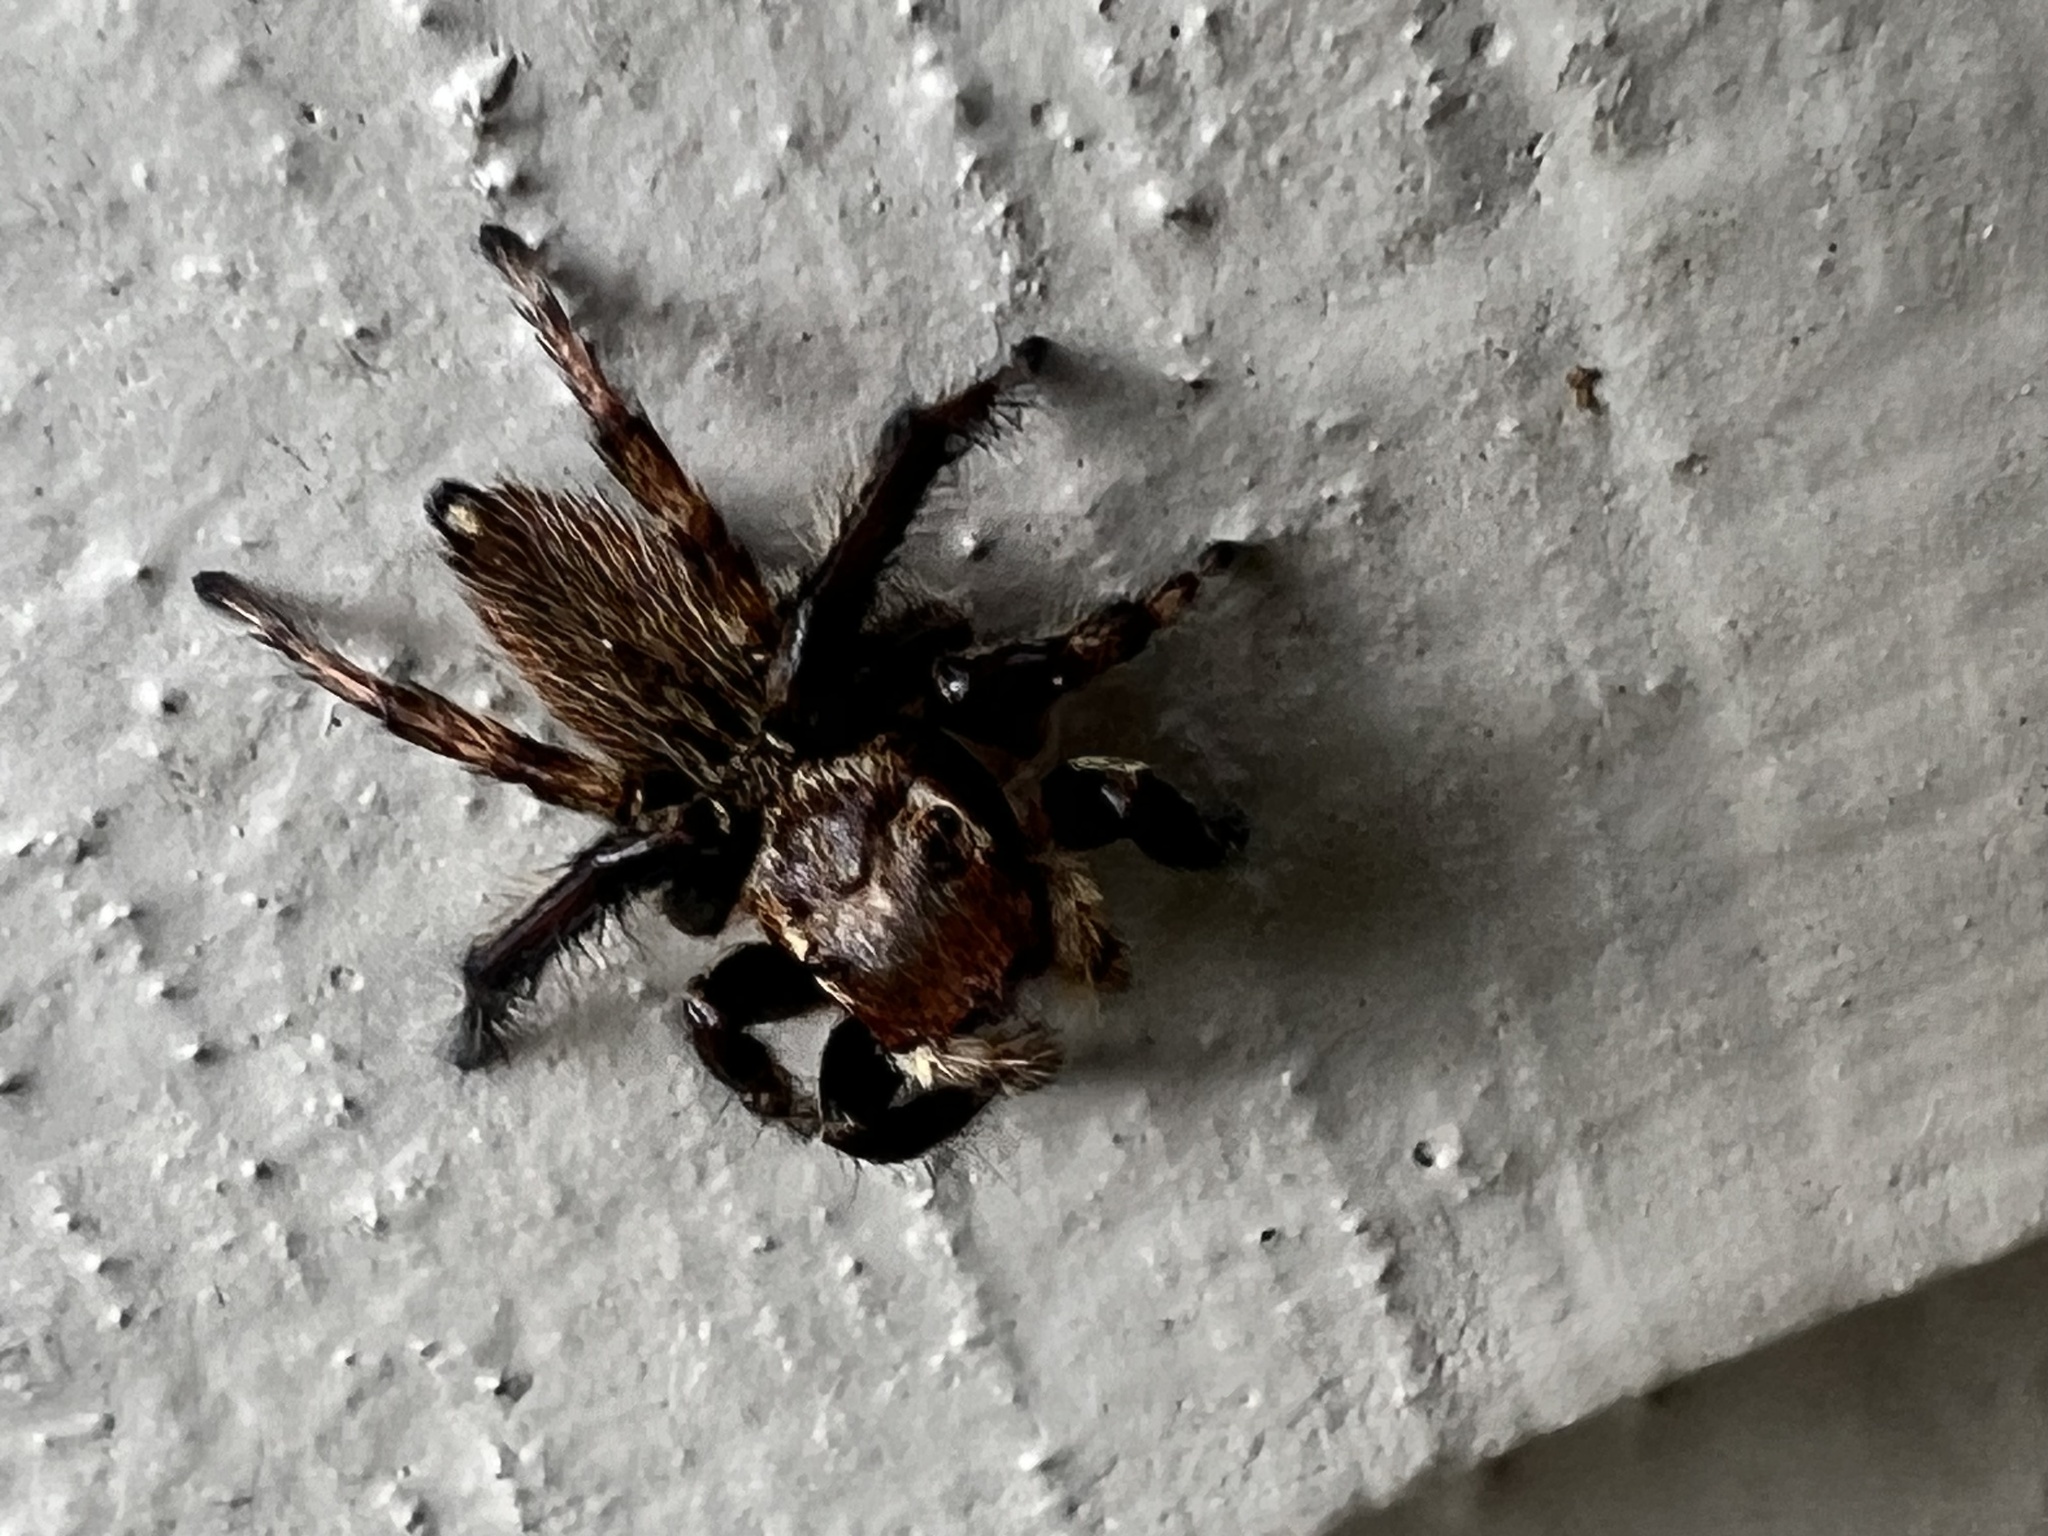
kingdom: Animalia
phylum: Arthropoda
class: Arachnida
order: Araneae
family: Salticidae
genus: Maratus
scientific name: Maratus griseus
